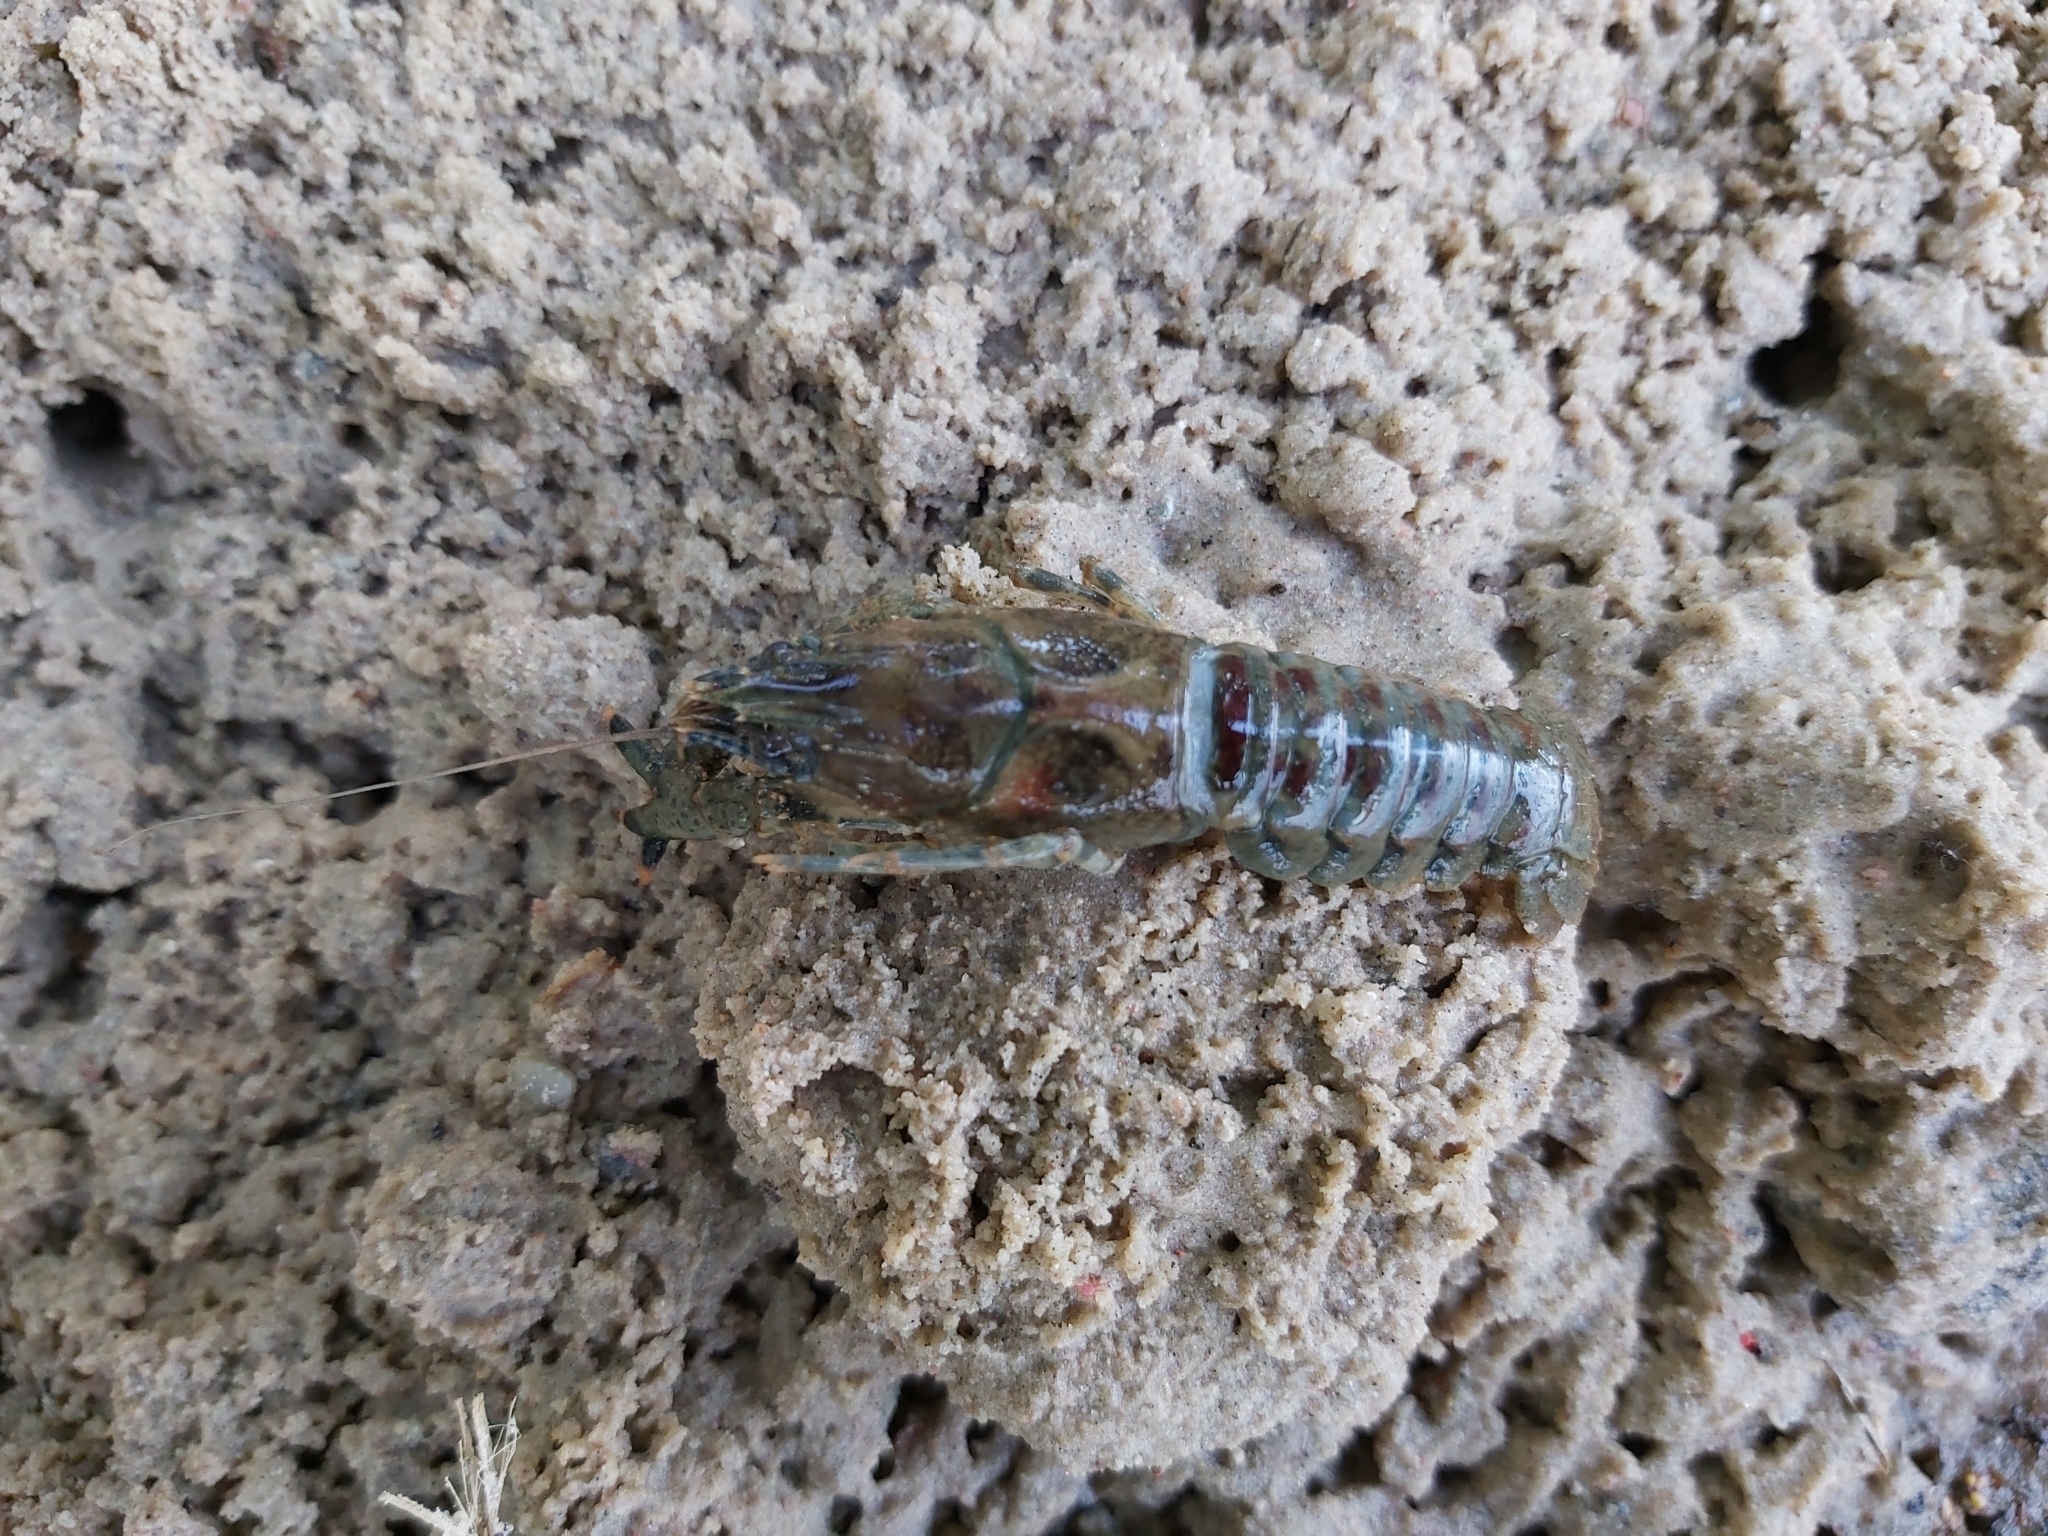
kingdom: Animalia
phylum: Arthropoda
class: Malacostraca
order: Decapoda
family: Cambaridae
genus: Faxonius
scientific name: Faxonius limosus
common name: American crayfish
